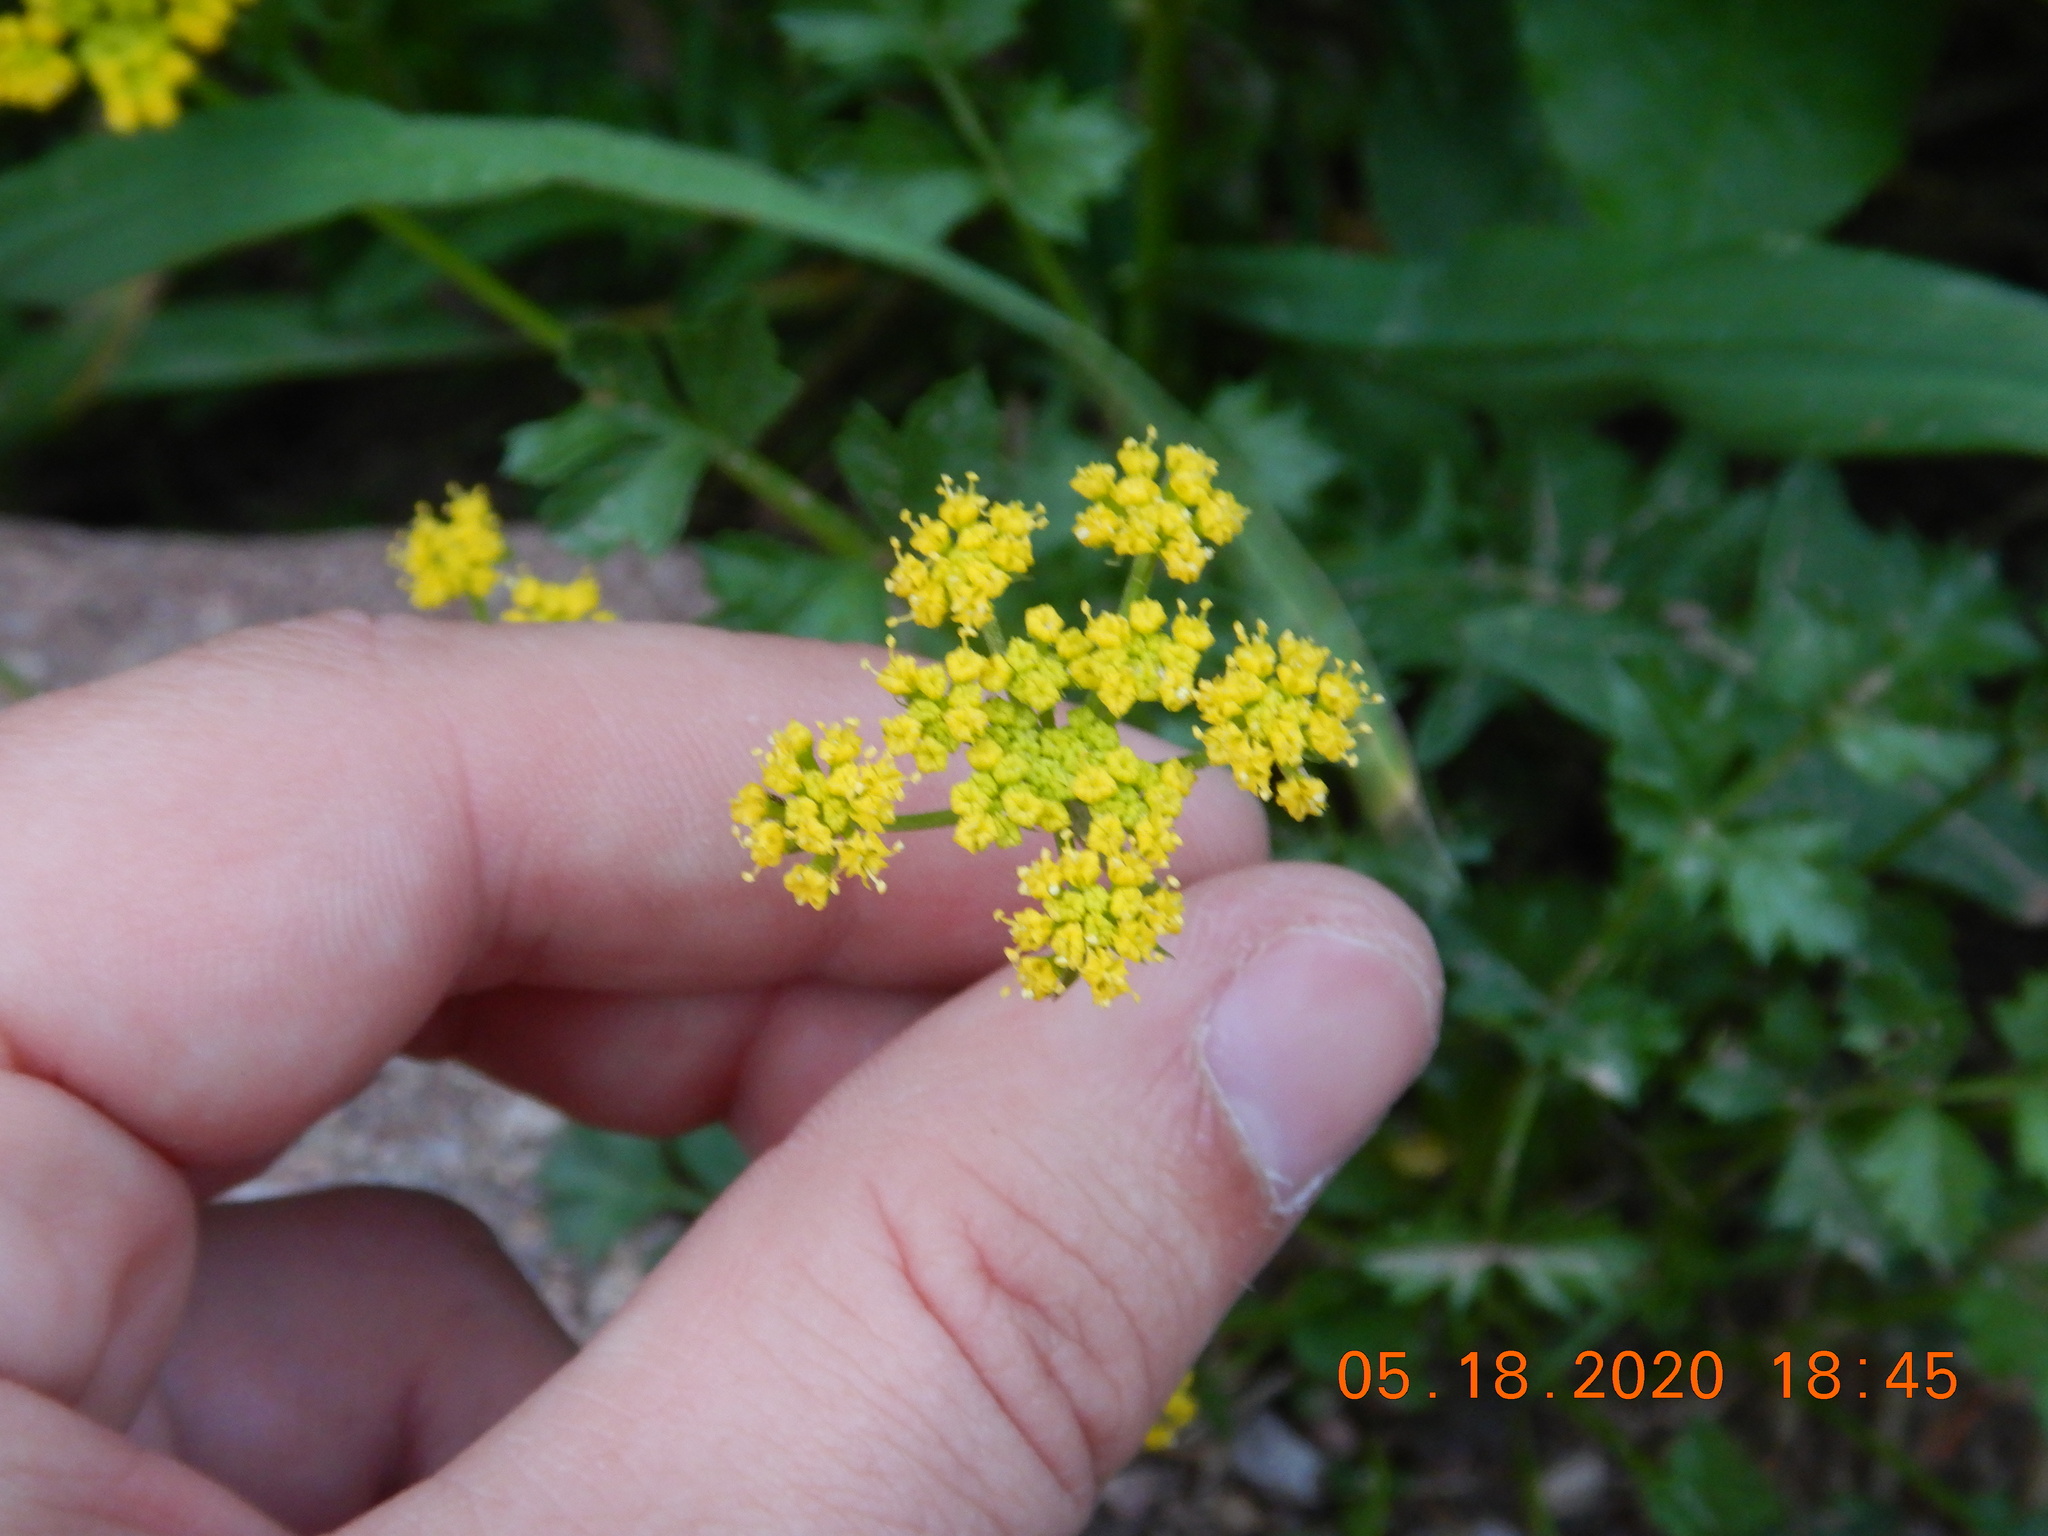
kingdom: Plantae
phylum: Tracheophyta
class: Magnoliopsida
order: Apiales
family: Apiaceae
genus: Cymopterus
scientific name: Cymopterus lemmonii
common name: Lemmon's spring-parsley
